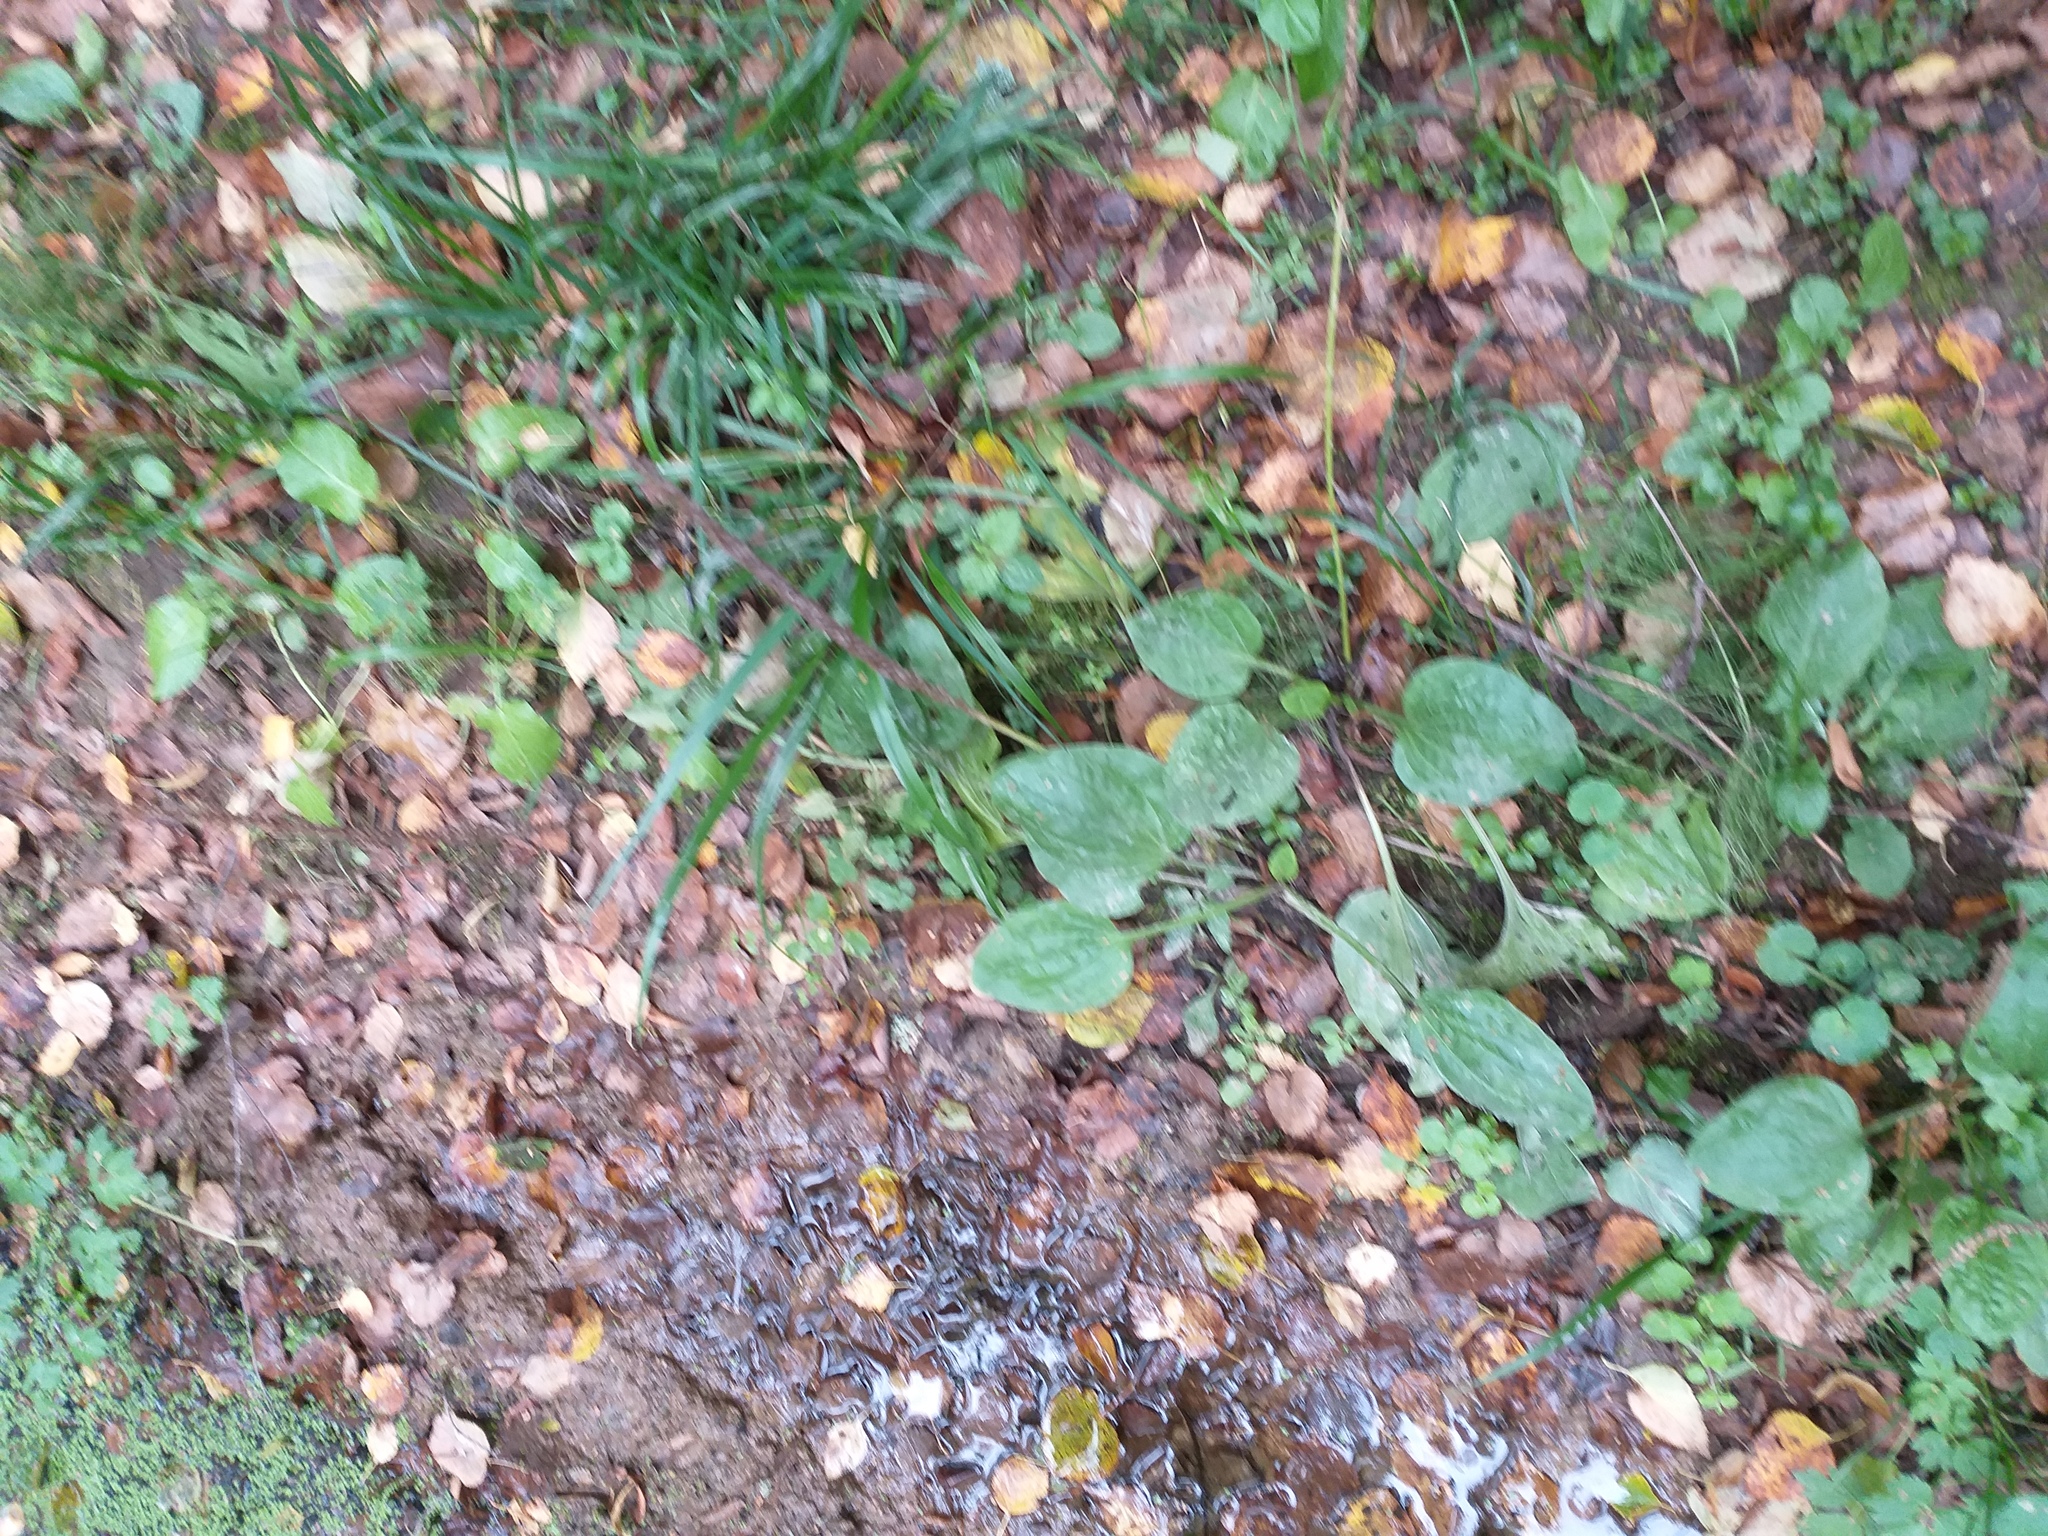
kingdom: Plantae
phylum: Tracheophyta
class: Magnoliopsida
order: Lamiales
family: Plantaginaceae
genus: Plantago
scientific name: Plantago major
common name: Common plantain
